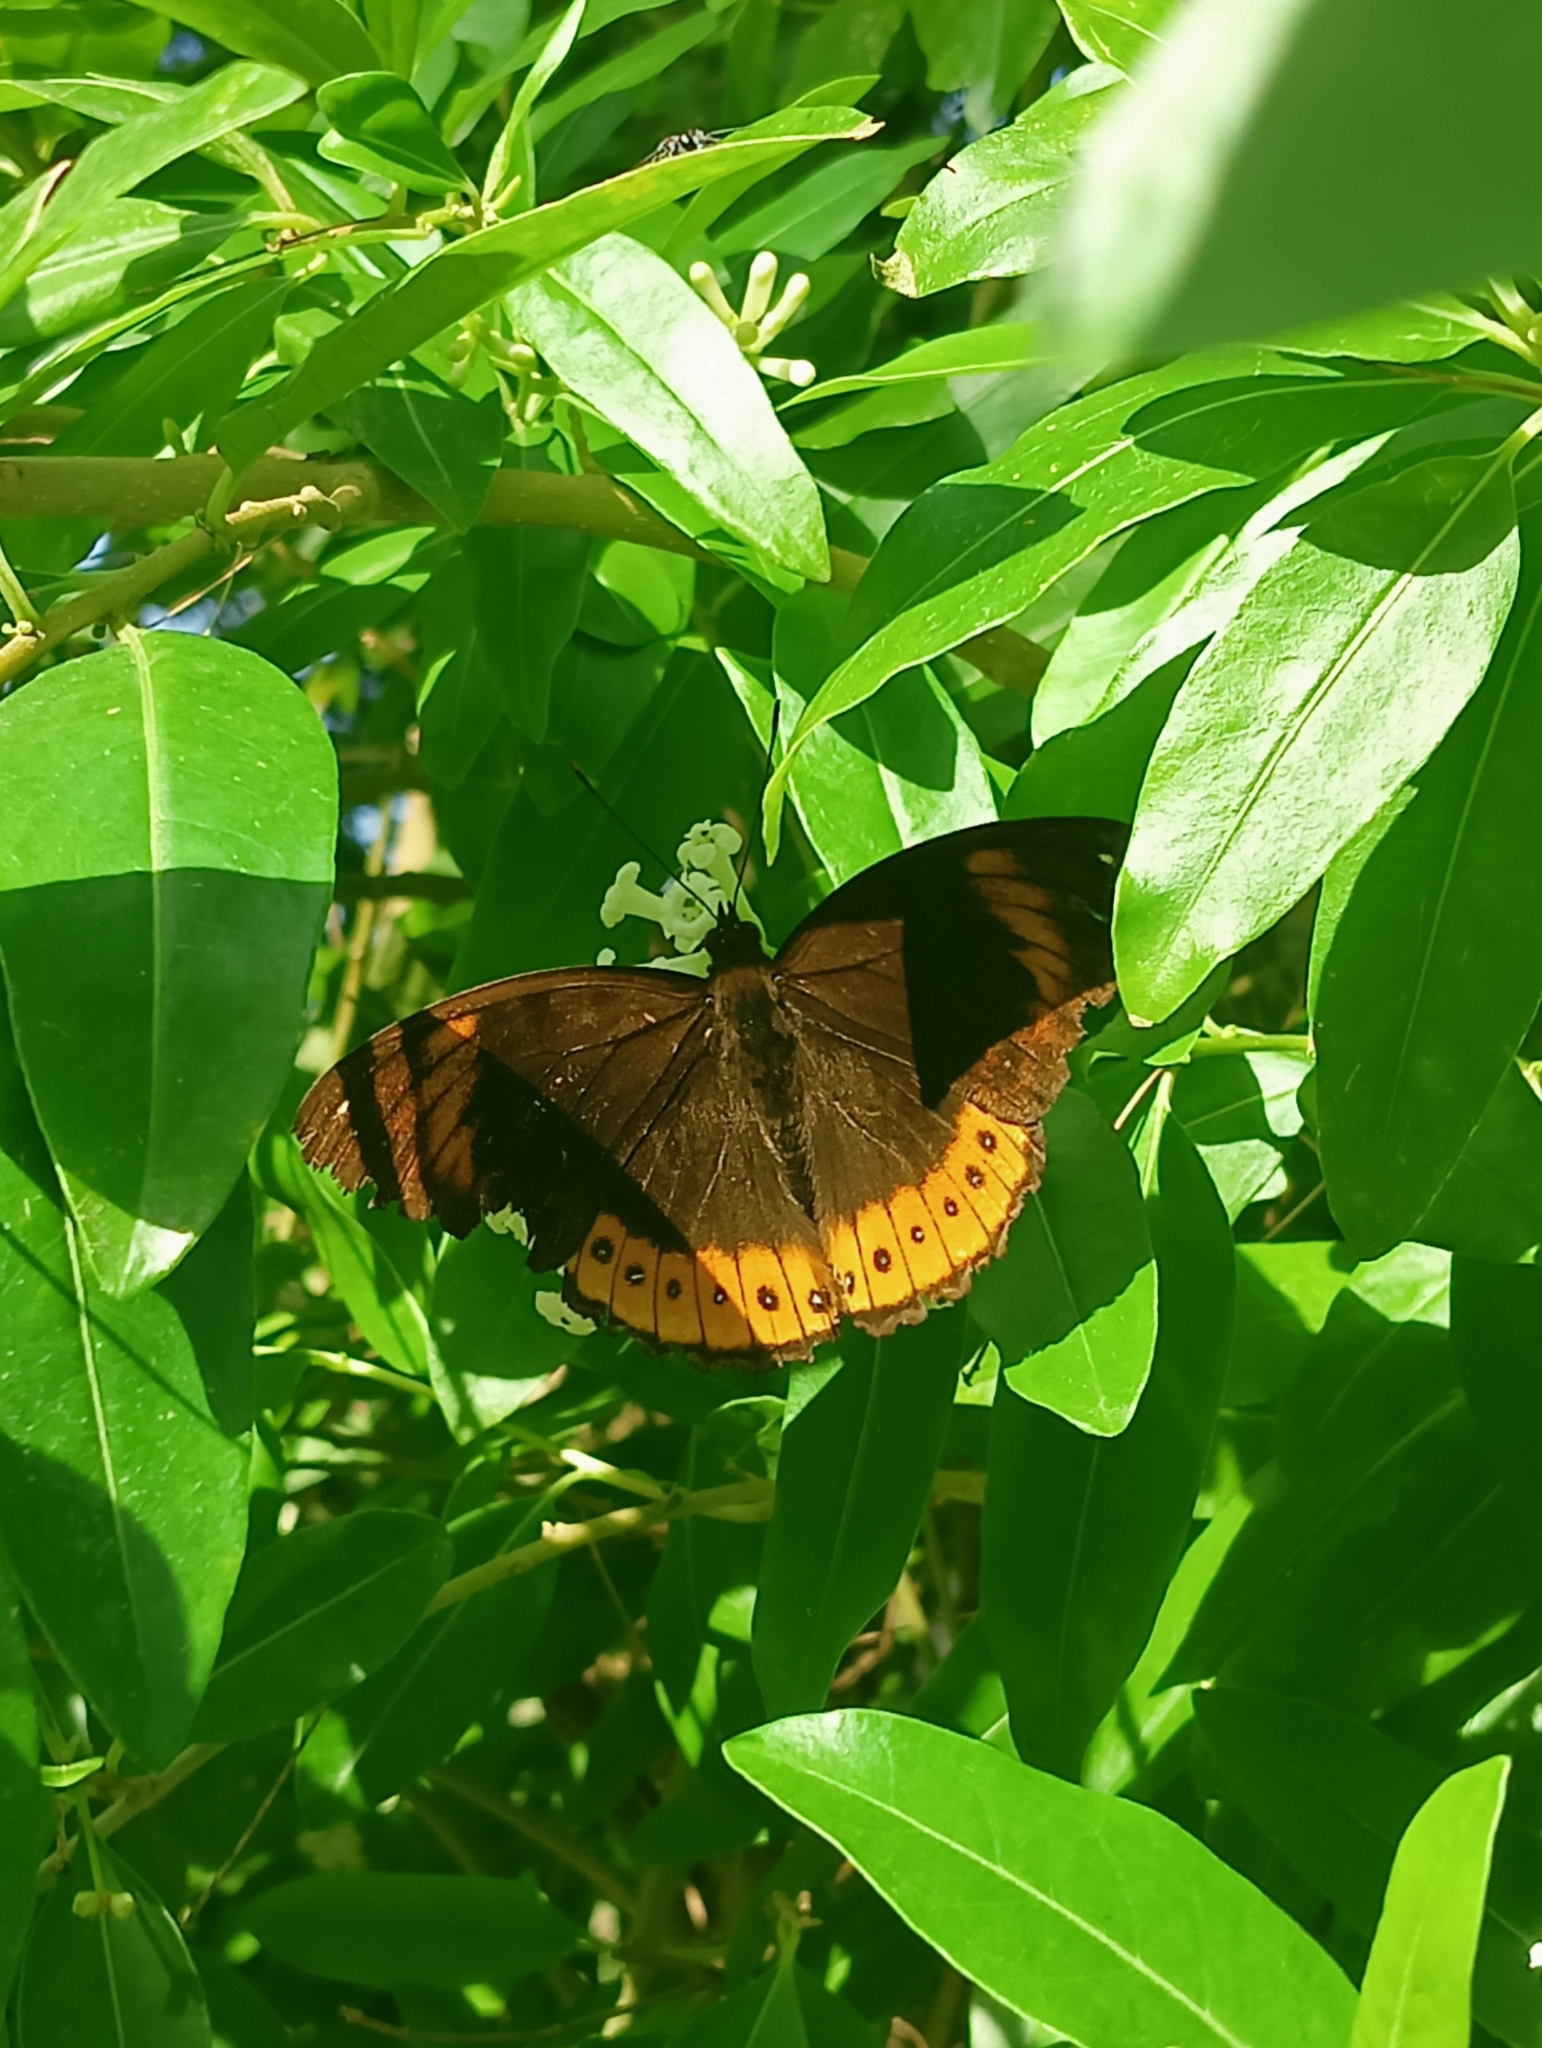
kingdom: Animalia
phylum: Arthropoda
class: Insecta
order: Lepidoptera
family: Nymphalidae
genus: Hypolimnas
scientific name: Hypolimnas octocula
